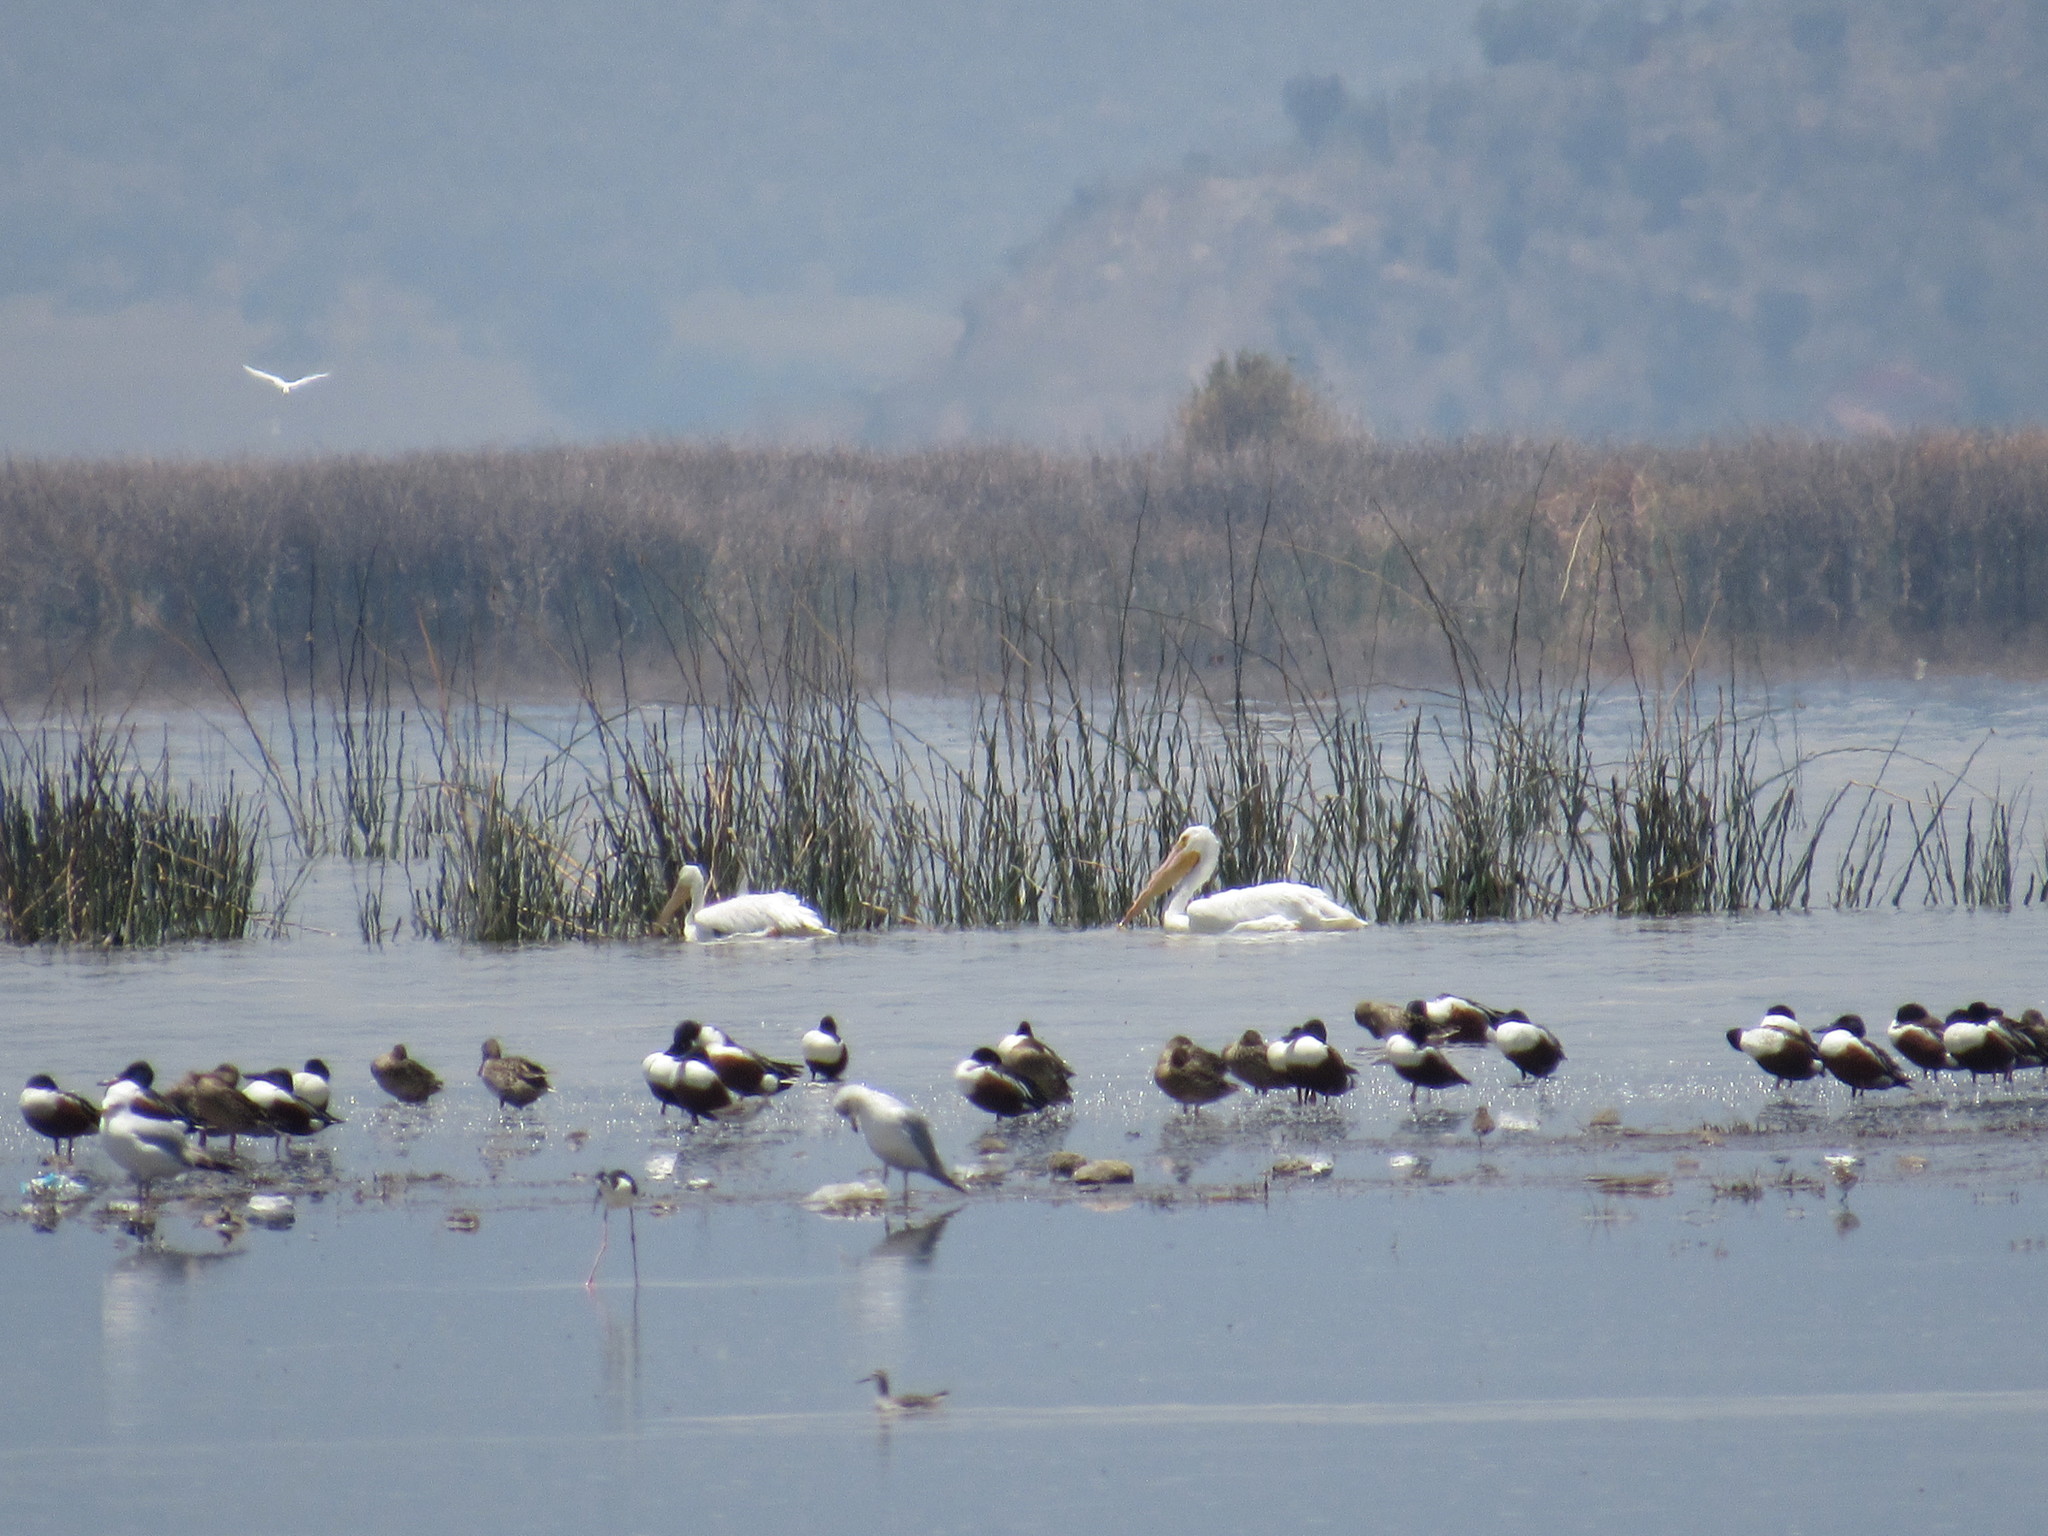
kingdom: Animalia
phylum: Chordata
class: Aves
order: Pelecaniformes
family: Pelecanidae
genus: Pelecanus
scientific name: Pelecanus erythrorhynchos
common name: American white pelican
